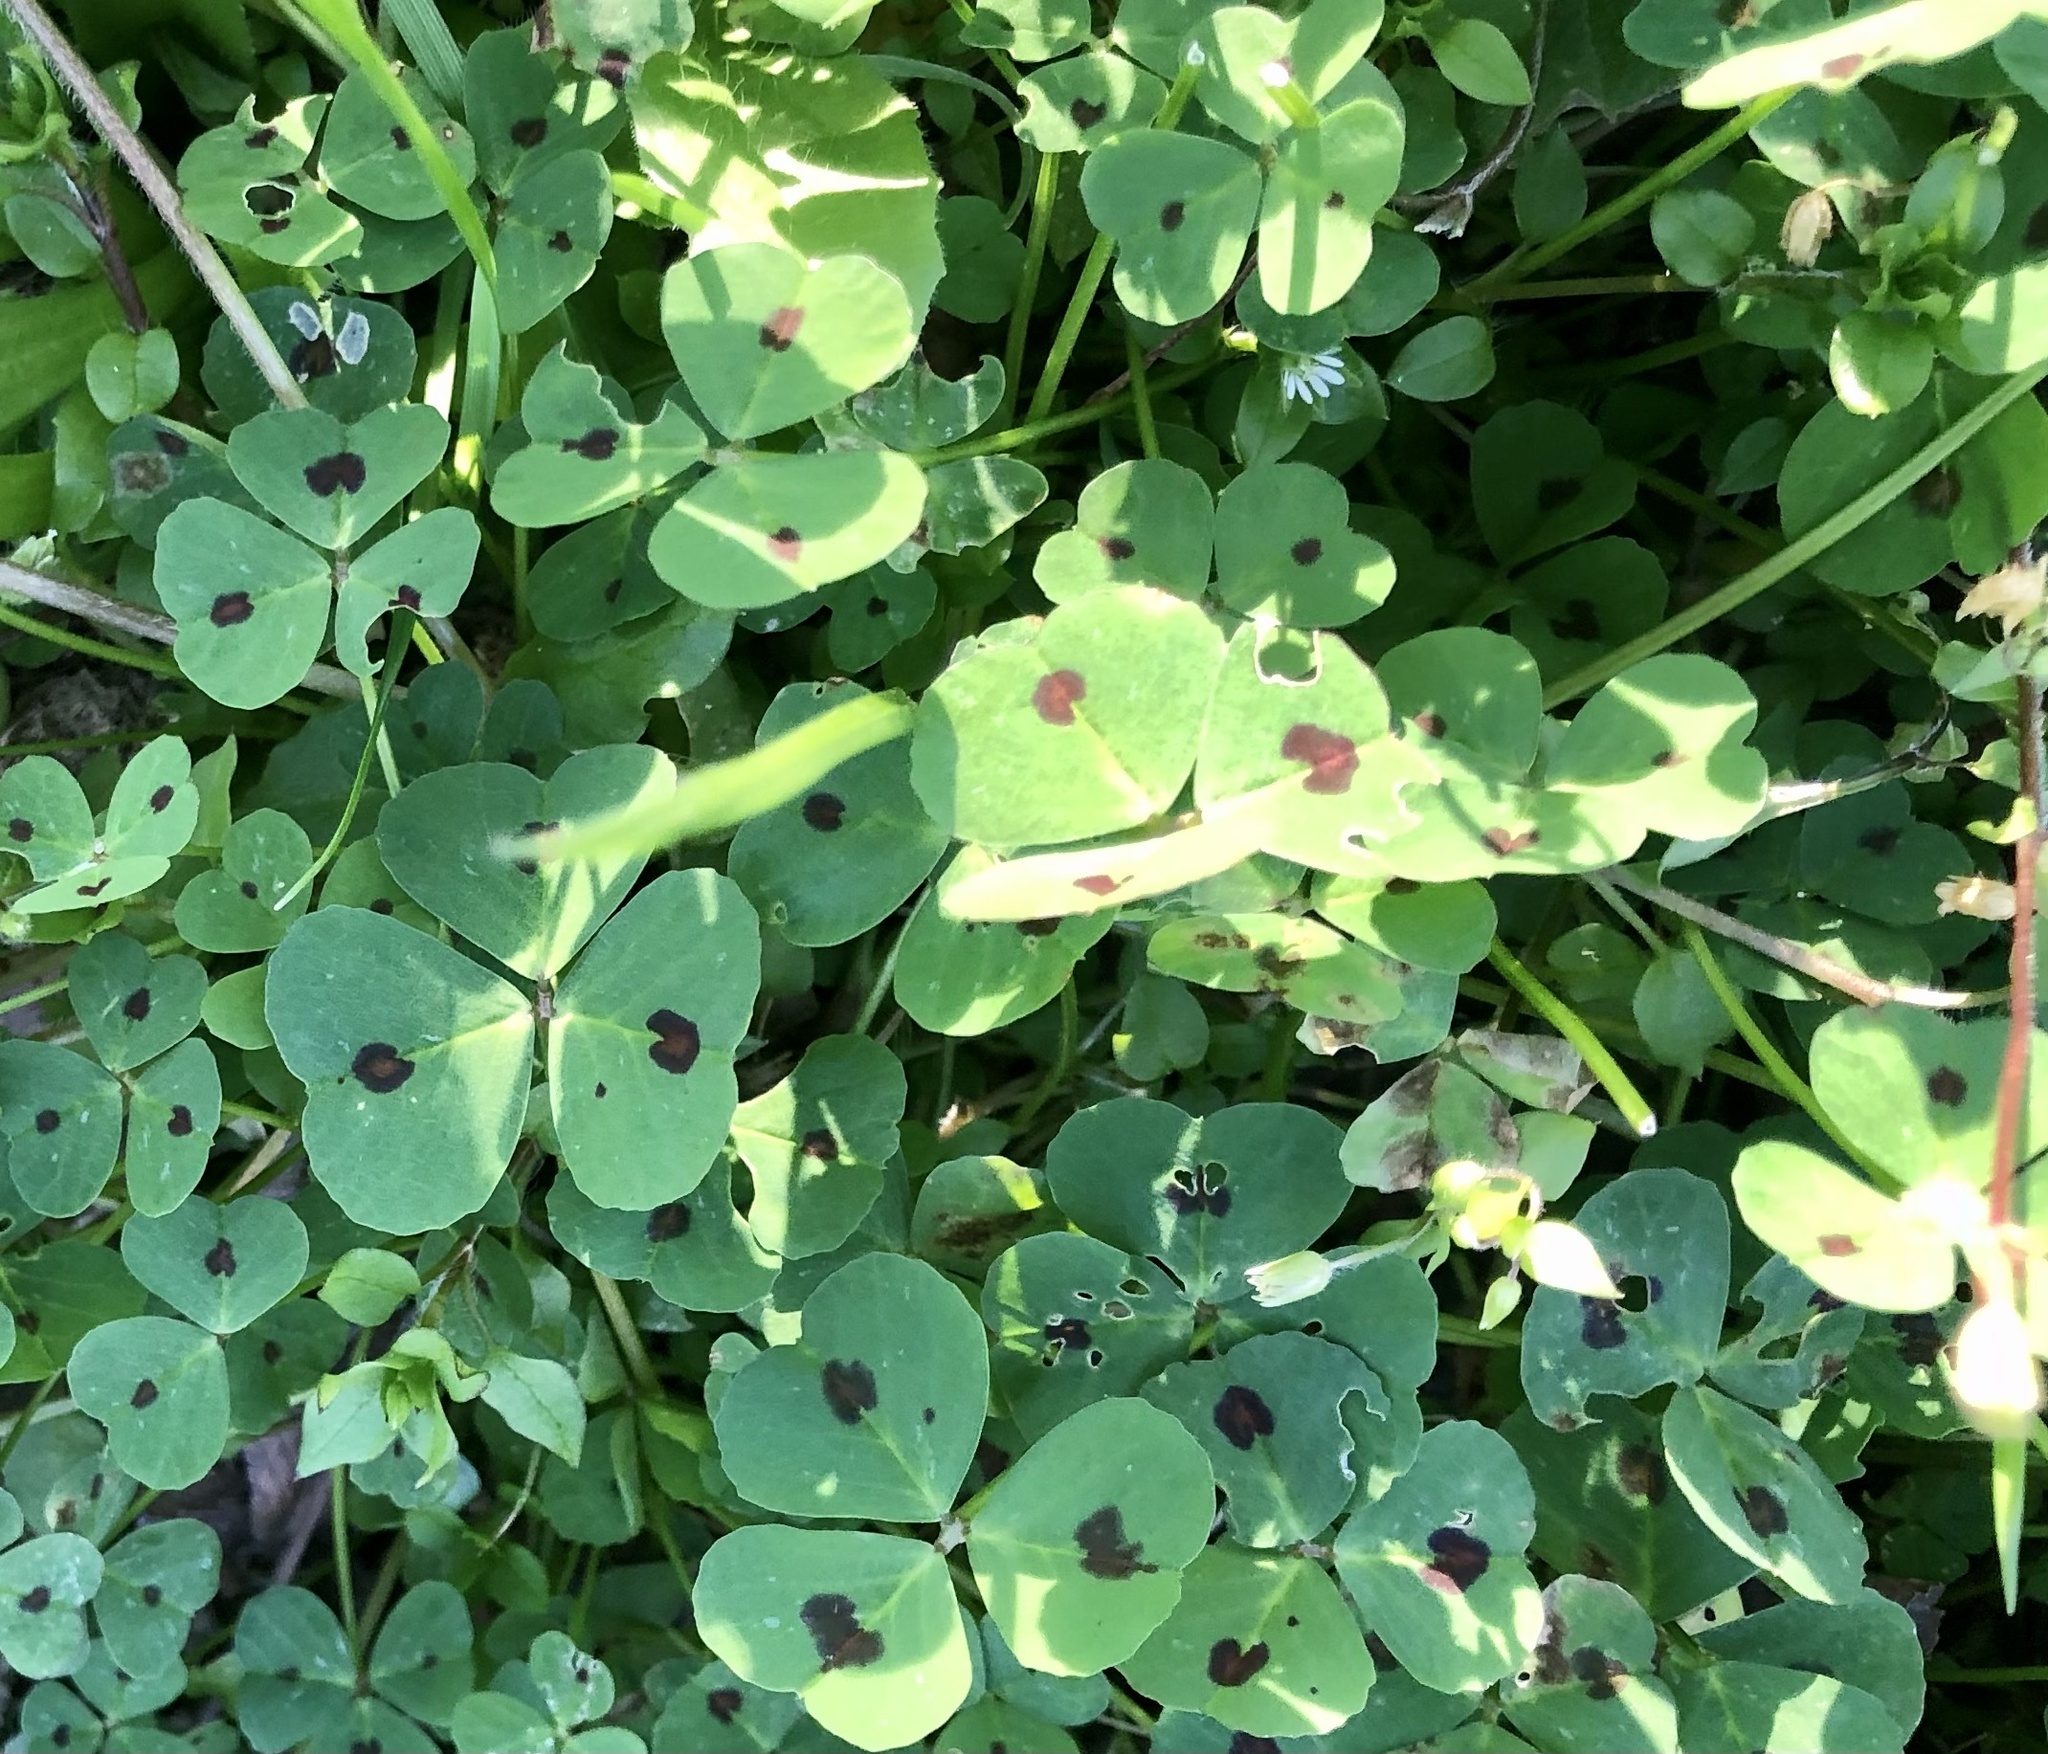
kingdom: Plantae
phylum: Tracheophyta
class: Magnoliopsida
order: Fabales
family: Fabaceae
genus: Medicago
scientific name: Medicago arabica
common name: Spotted medick
